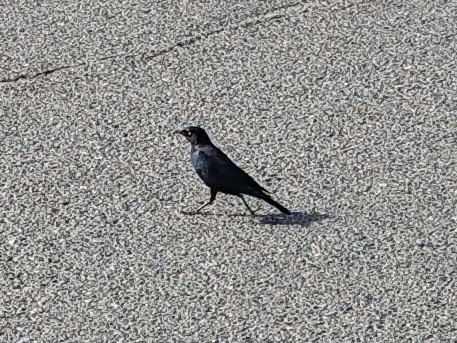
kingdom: Animalia
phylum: Chordata
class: Aves
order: Passeriformes
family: Icteridae
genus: Euphagus
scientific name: Euphagus cyanocephalus
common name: Brewer's blackbird
